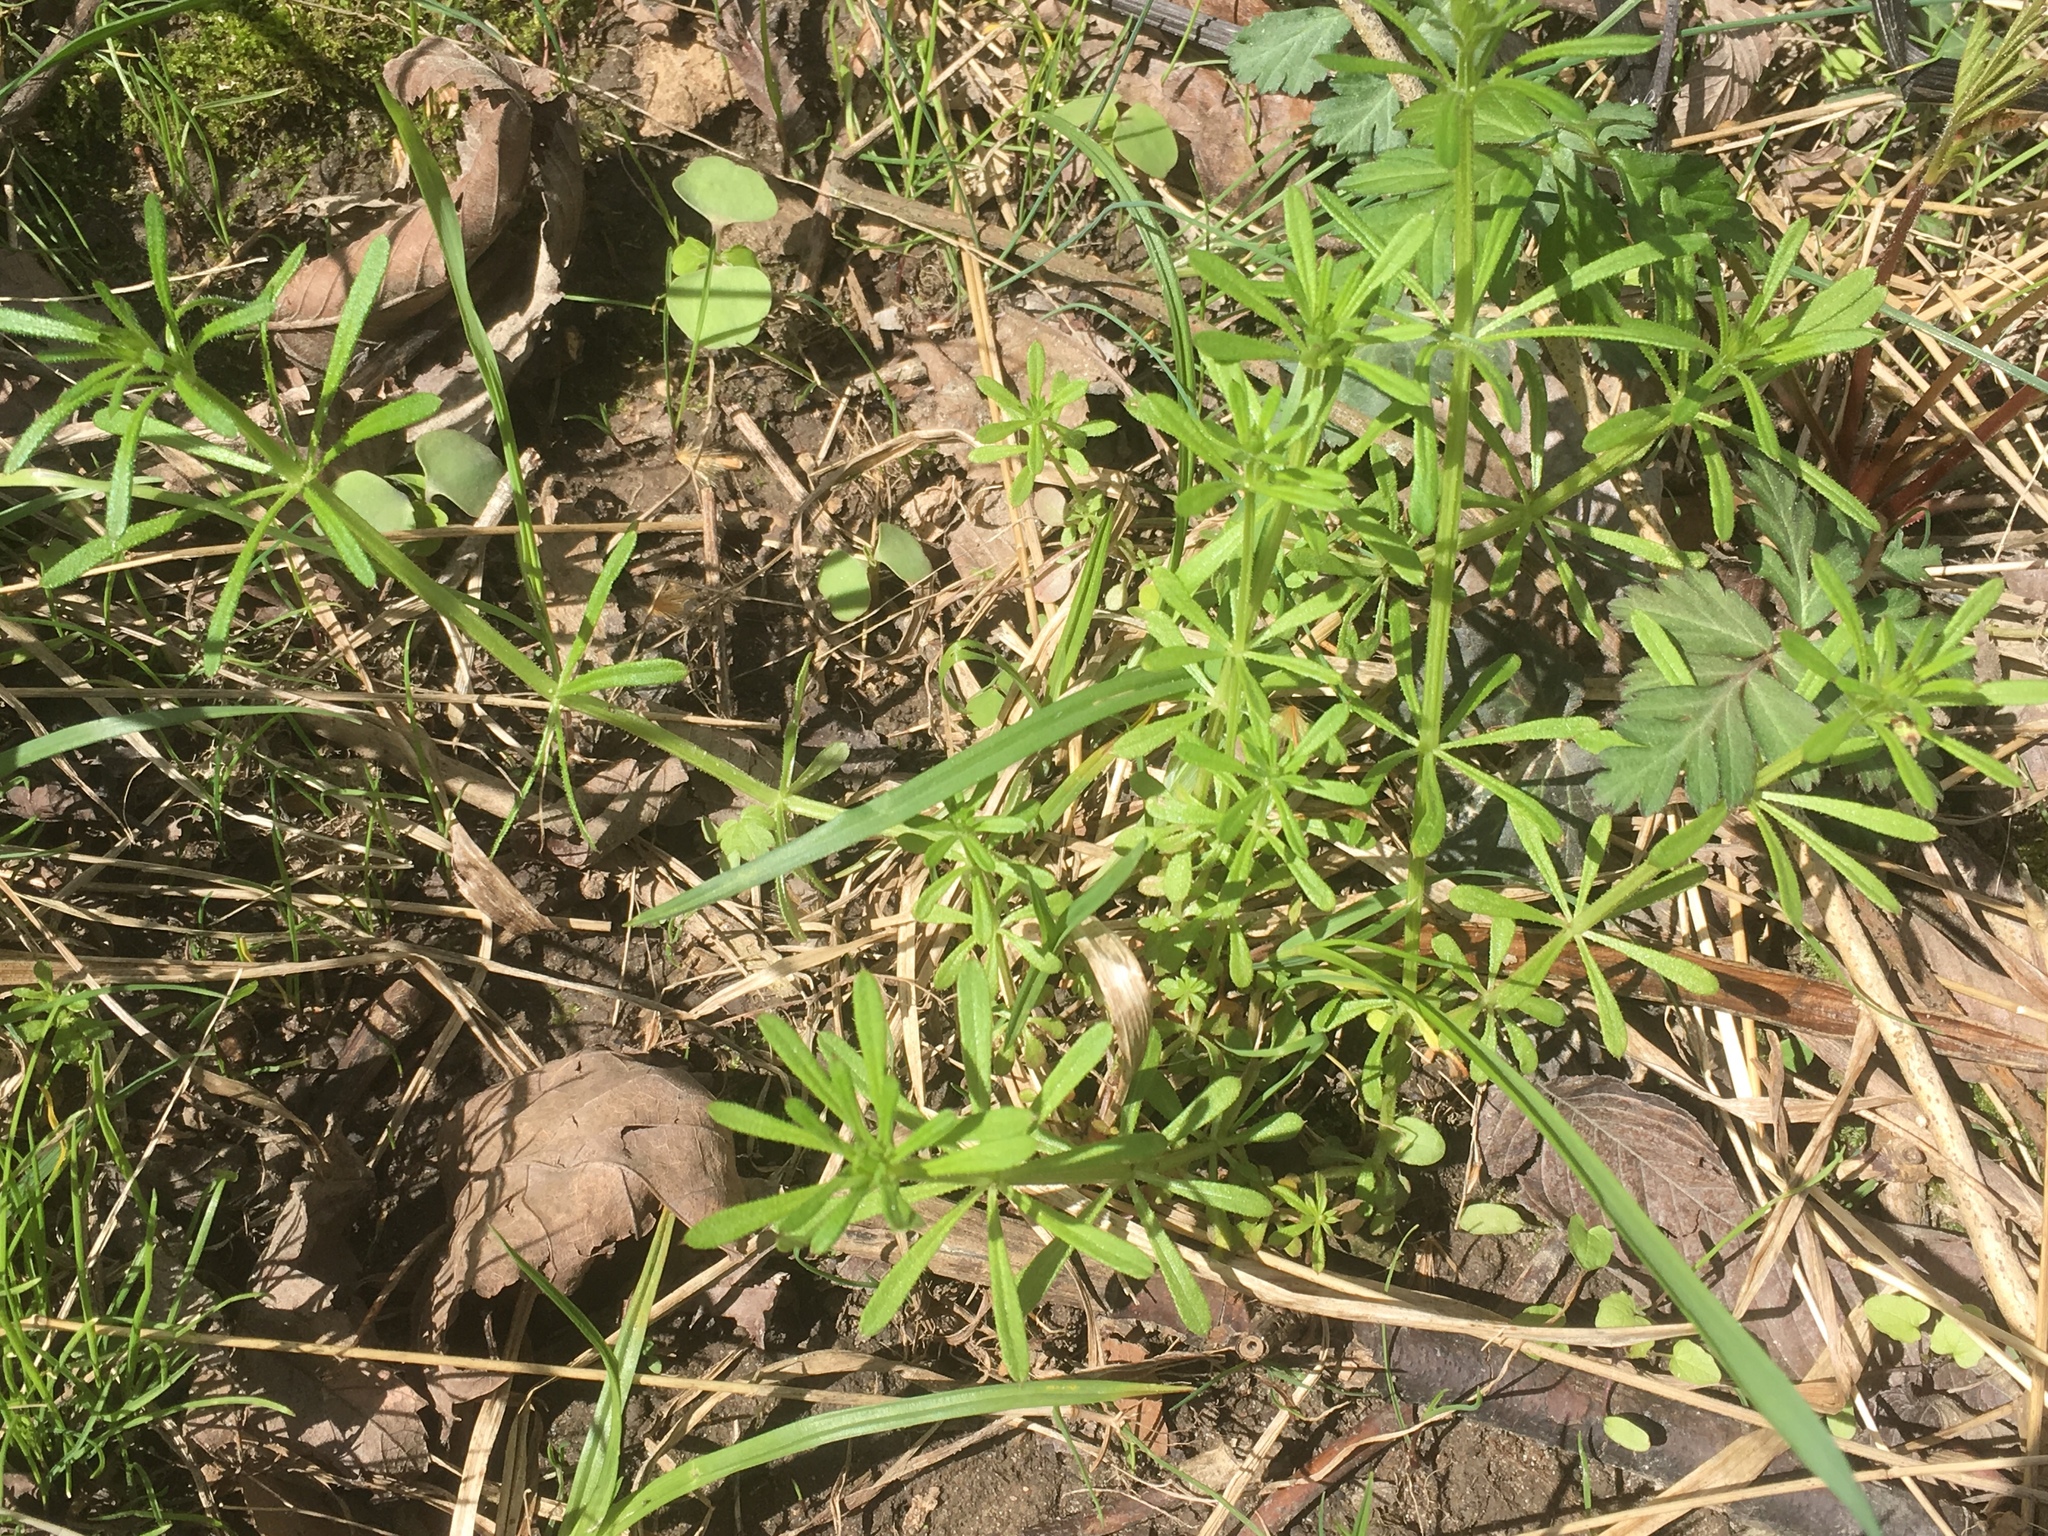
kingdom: Plantae
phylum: Tracheophyta
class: Magnoliopsida
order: Gentianales
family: Rubiaceae
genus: Galium
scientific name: Galium aparine
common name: Cleavers
